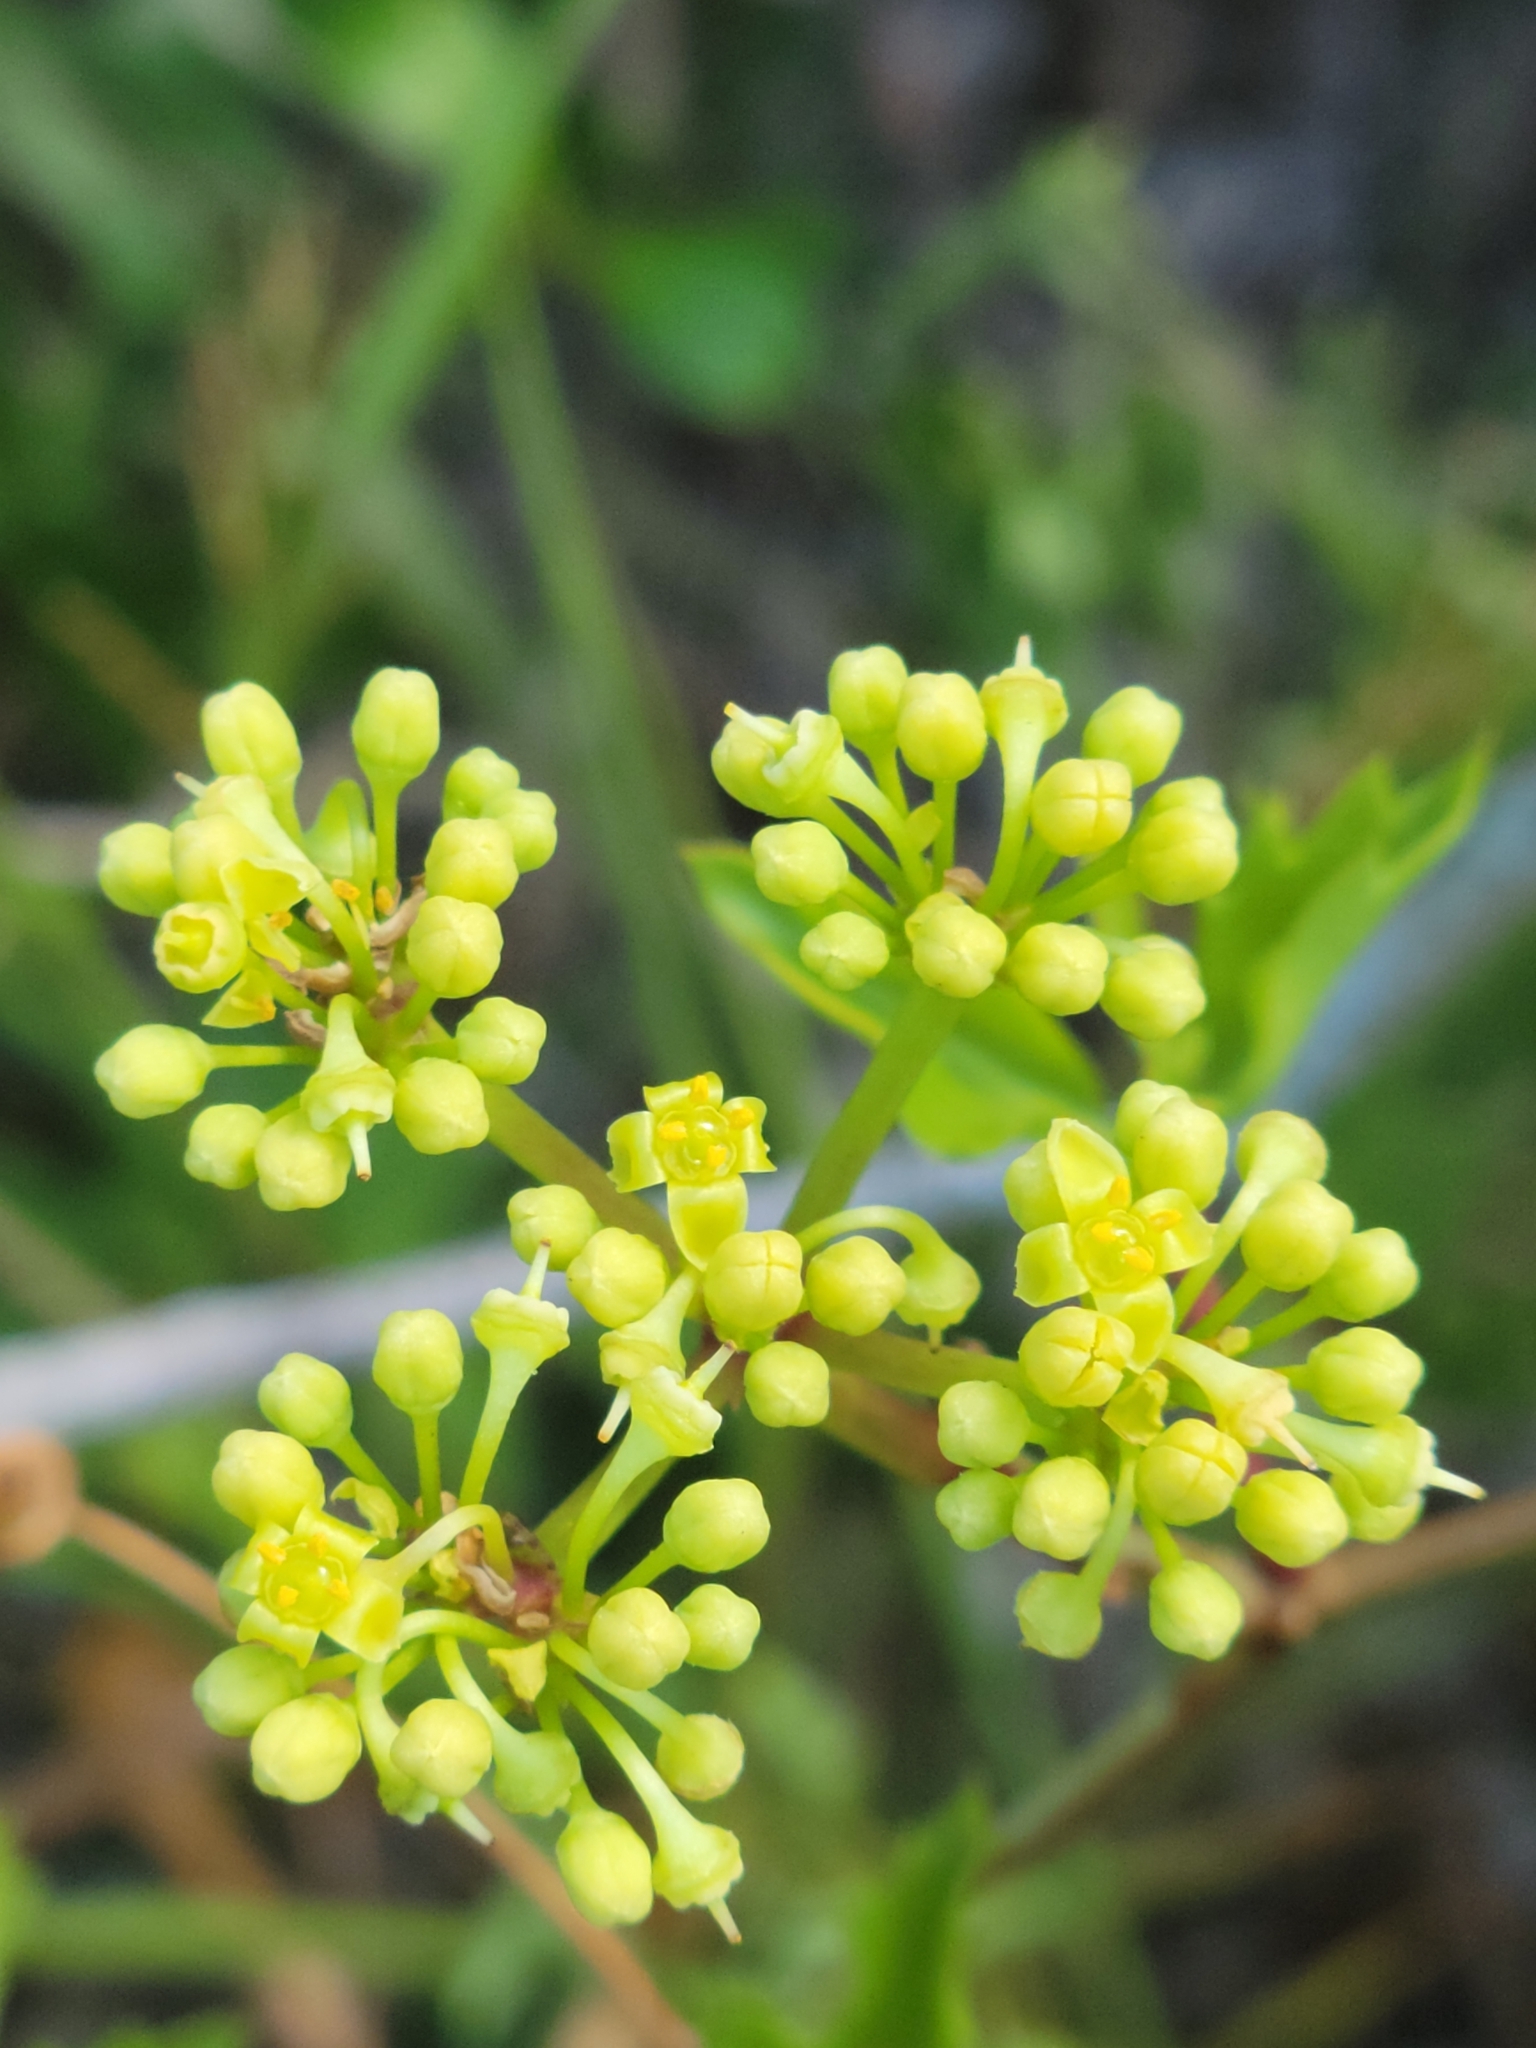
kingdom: Plantae
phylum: Tracheophyta
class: Magnoliopsida
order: Vitales
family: Vitaceae
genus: Cissus
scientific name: Cissus trifoliata
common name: Vine-sorrel
